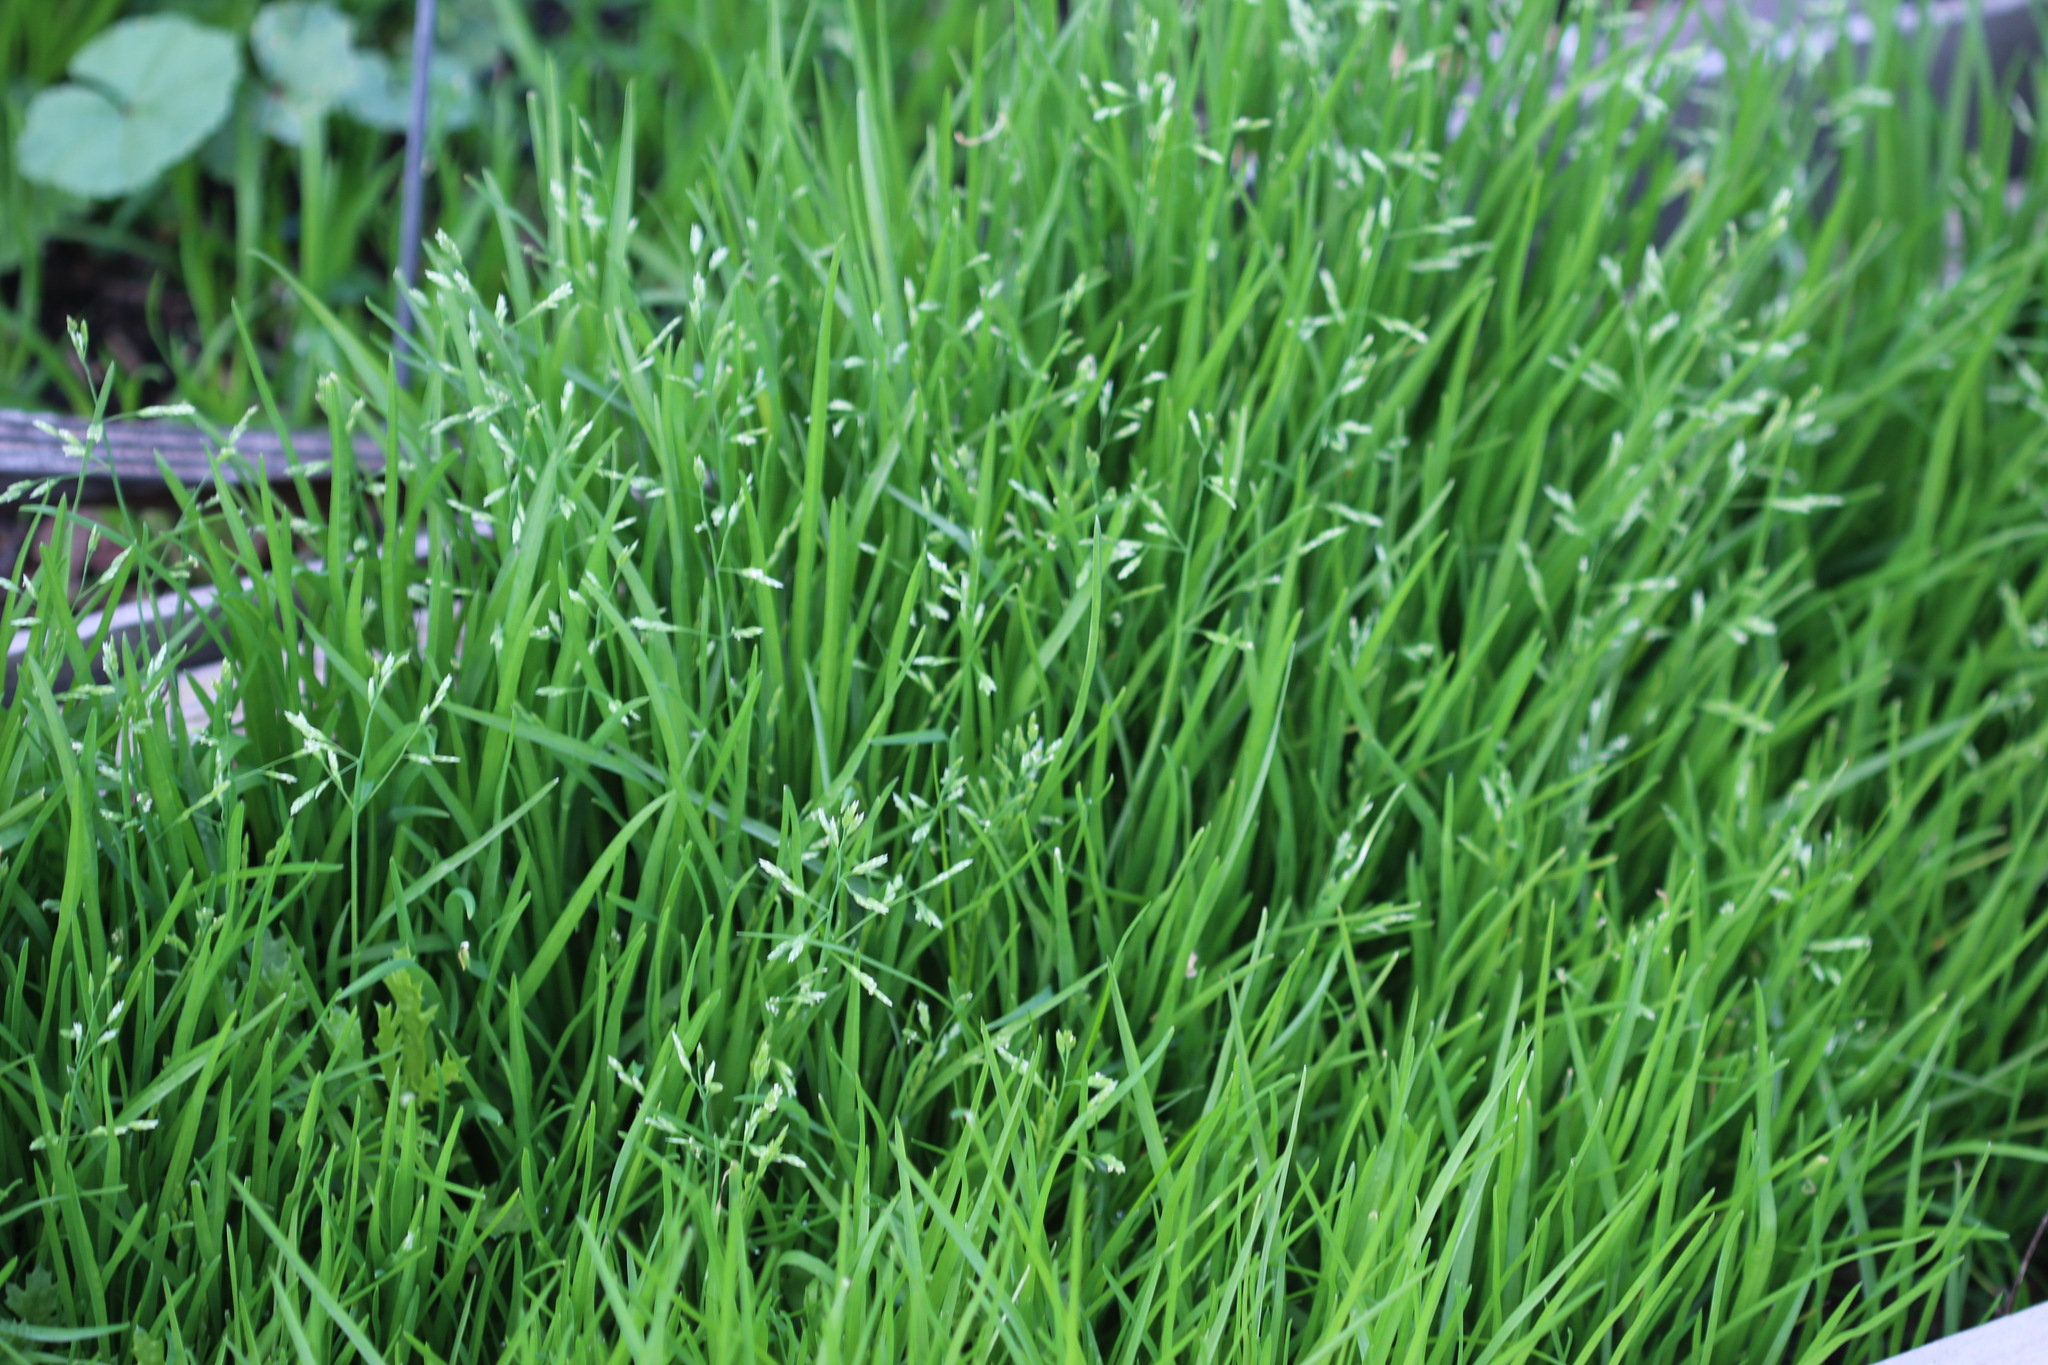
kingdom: Plantae
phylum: Tracheophyta
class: Liliopsida
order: Poales
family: Poaceae
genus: Poa
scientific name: Poa annua
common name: Annual bluegrass
